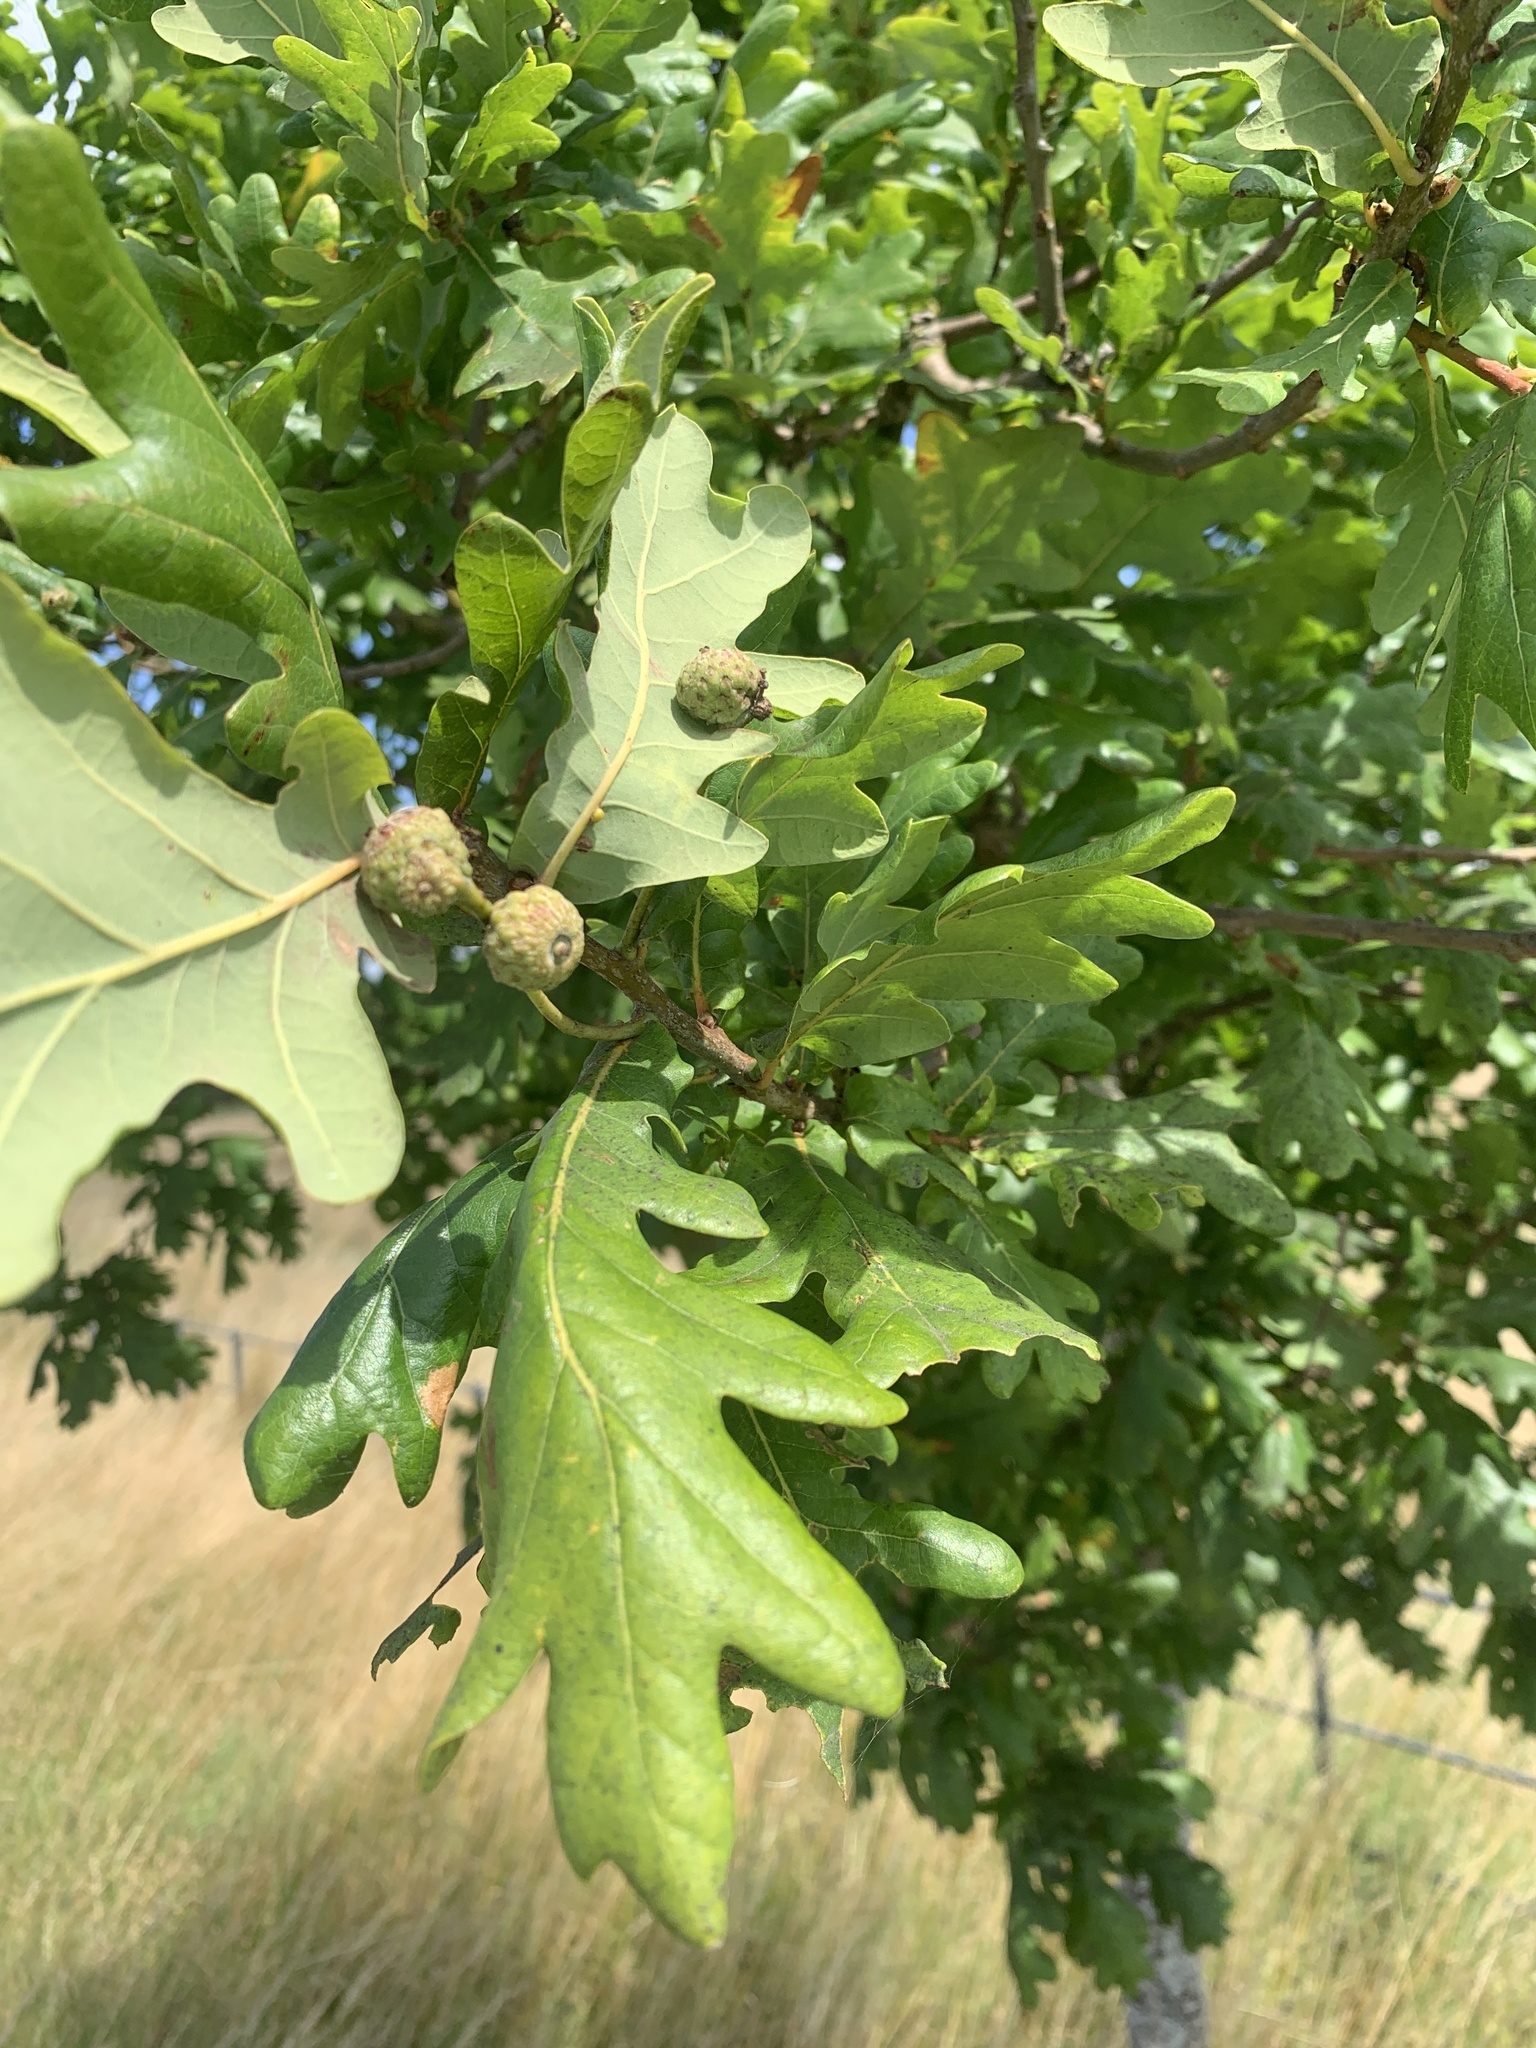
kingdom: Animalia
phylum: Arthropoda
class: Insecta
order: Hymenoptera
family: Cynipidae
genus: Neuroterus
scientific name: Neuroterus anthracinus
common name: Oyster gall
